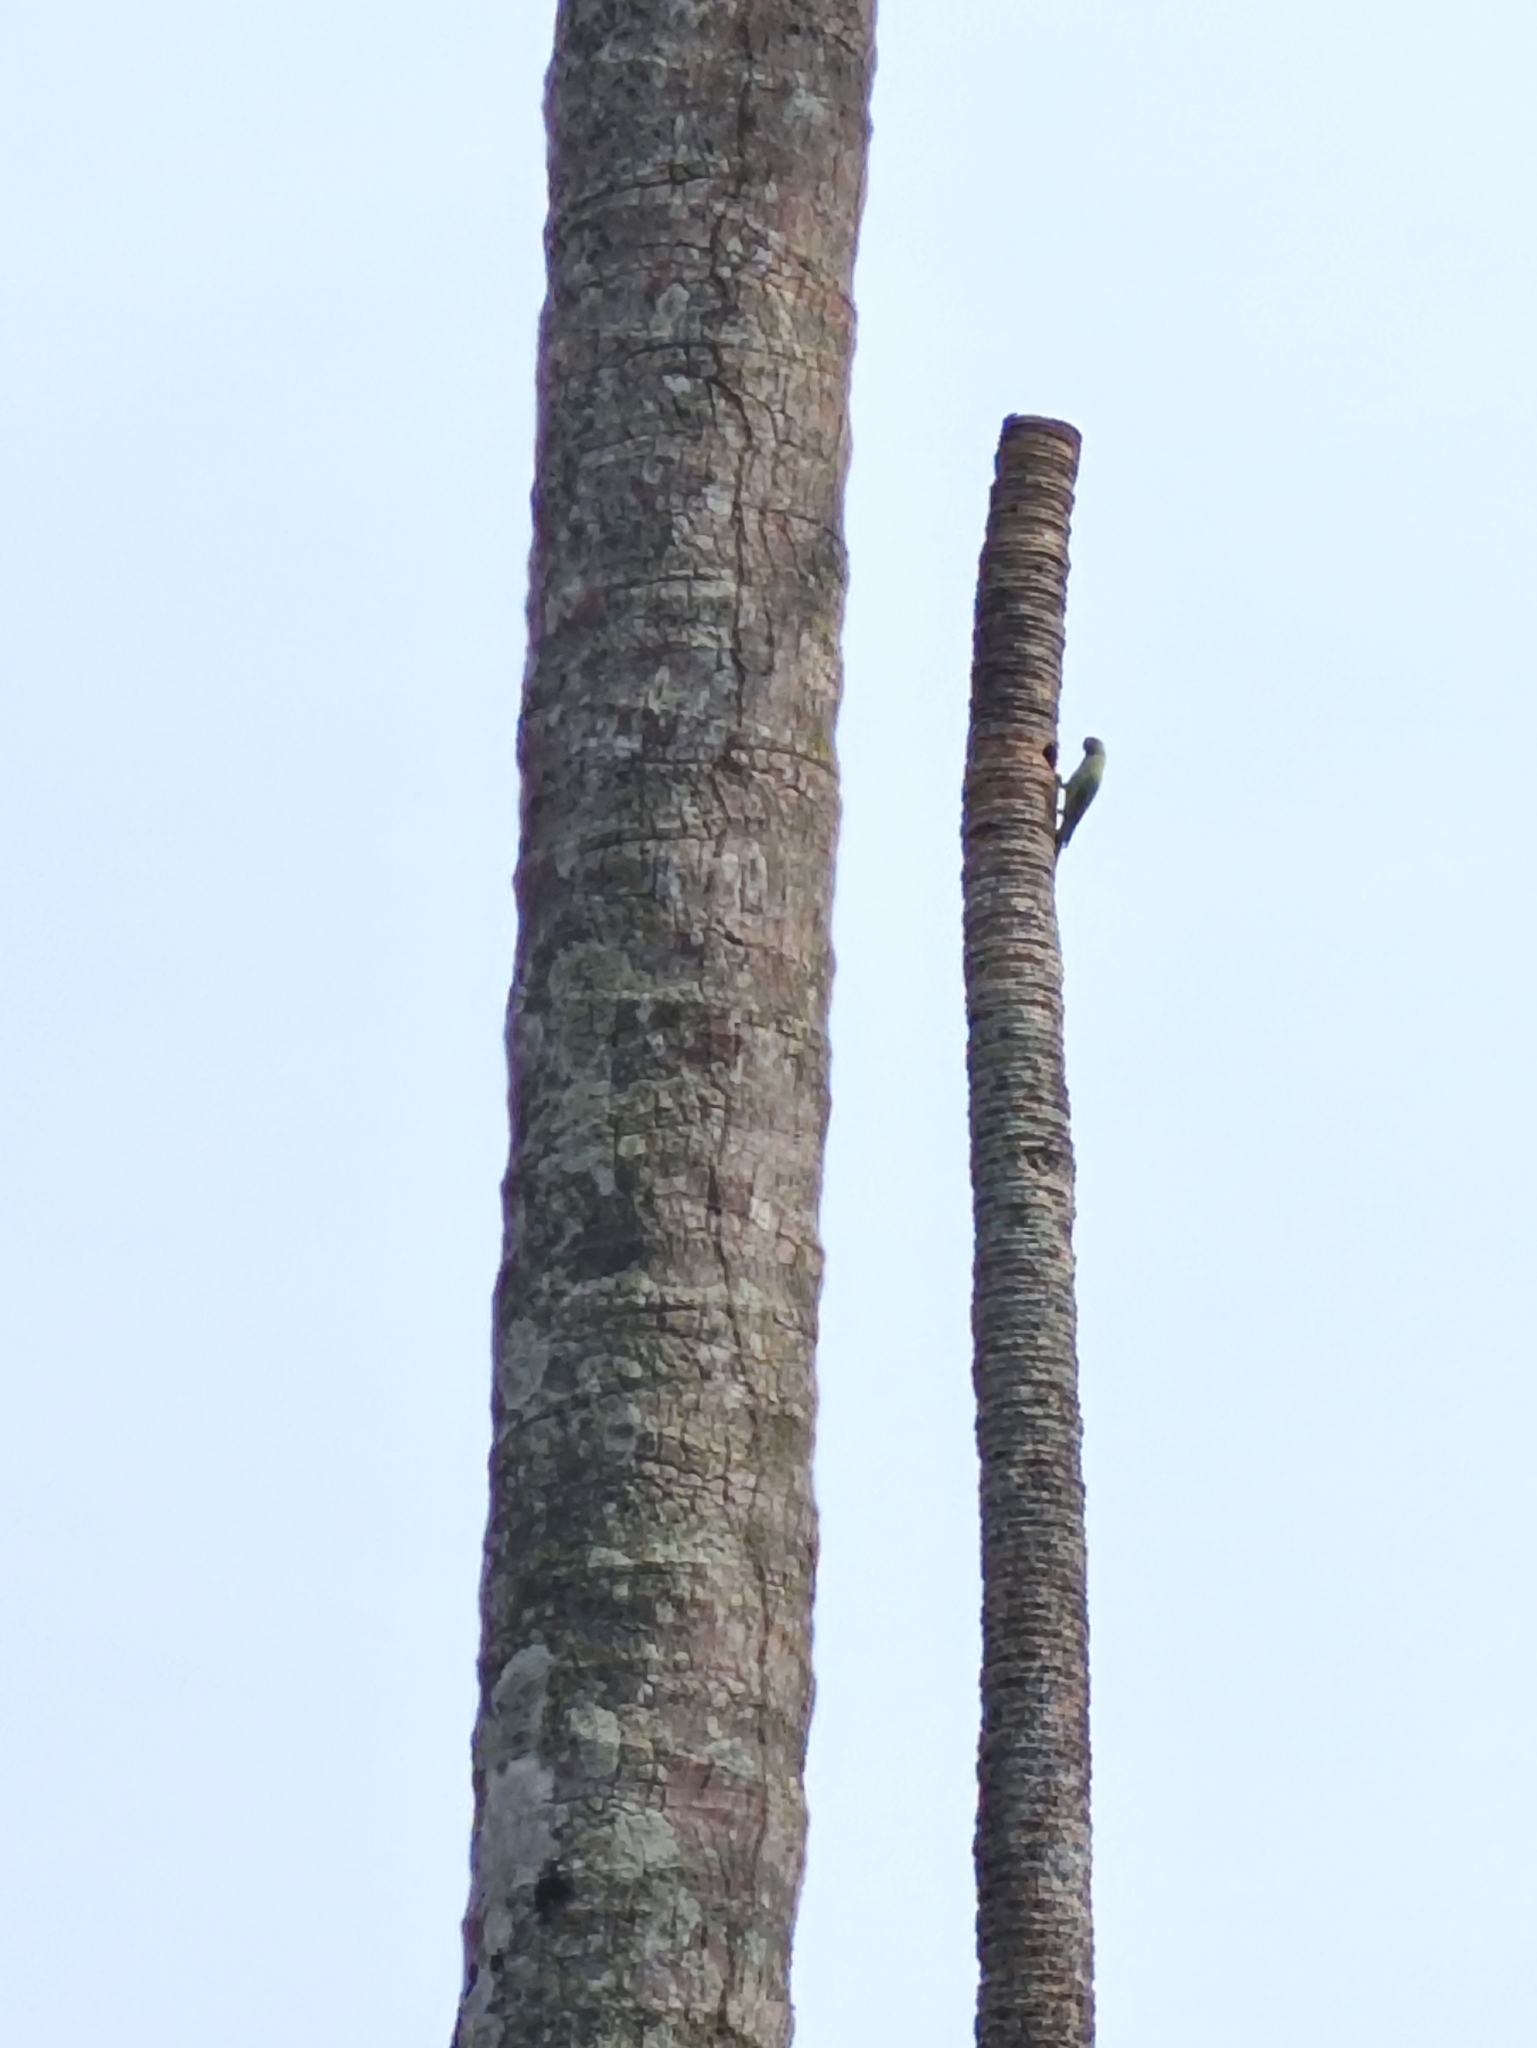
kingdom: Animalia
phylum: Chordata
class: Aves
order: Psittaciformes
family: Psittacidae
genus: Psittacula
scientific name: Psittacula krameri
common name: Rose-ringed parakeet
